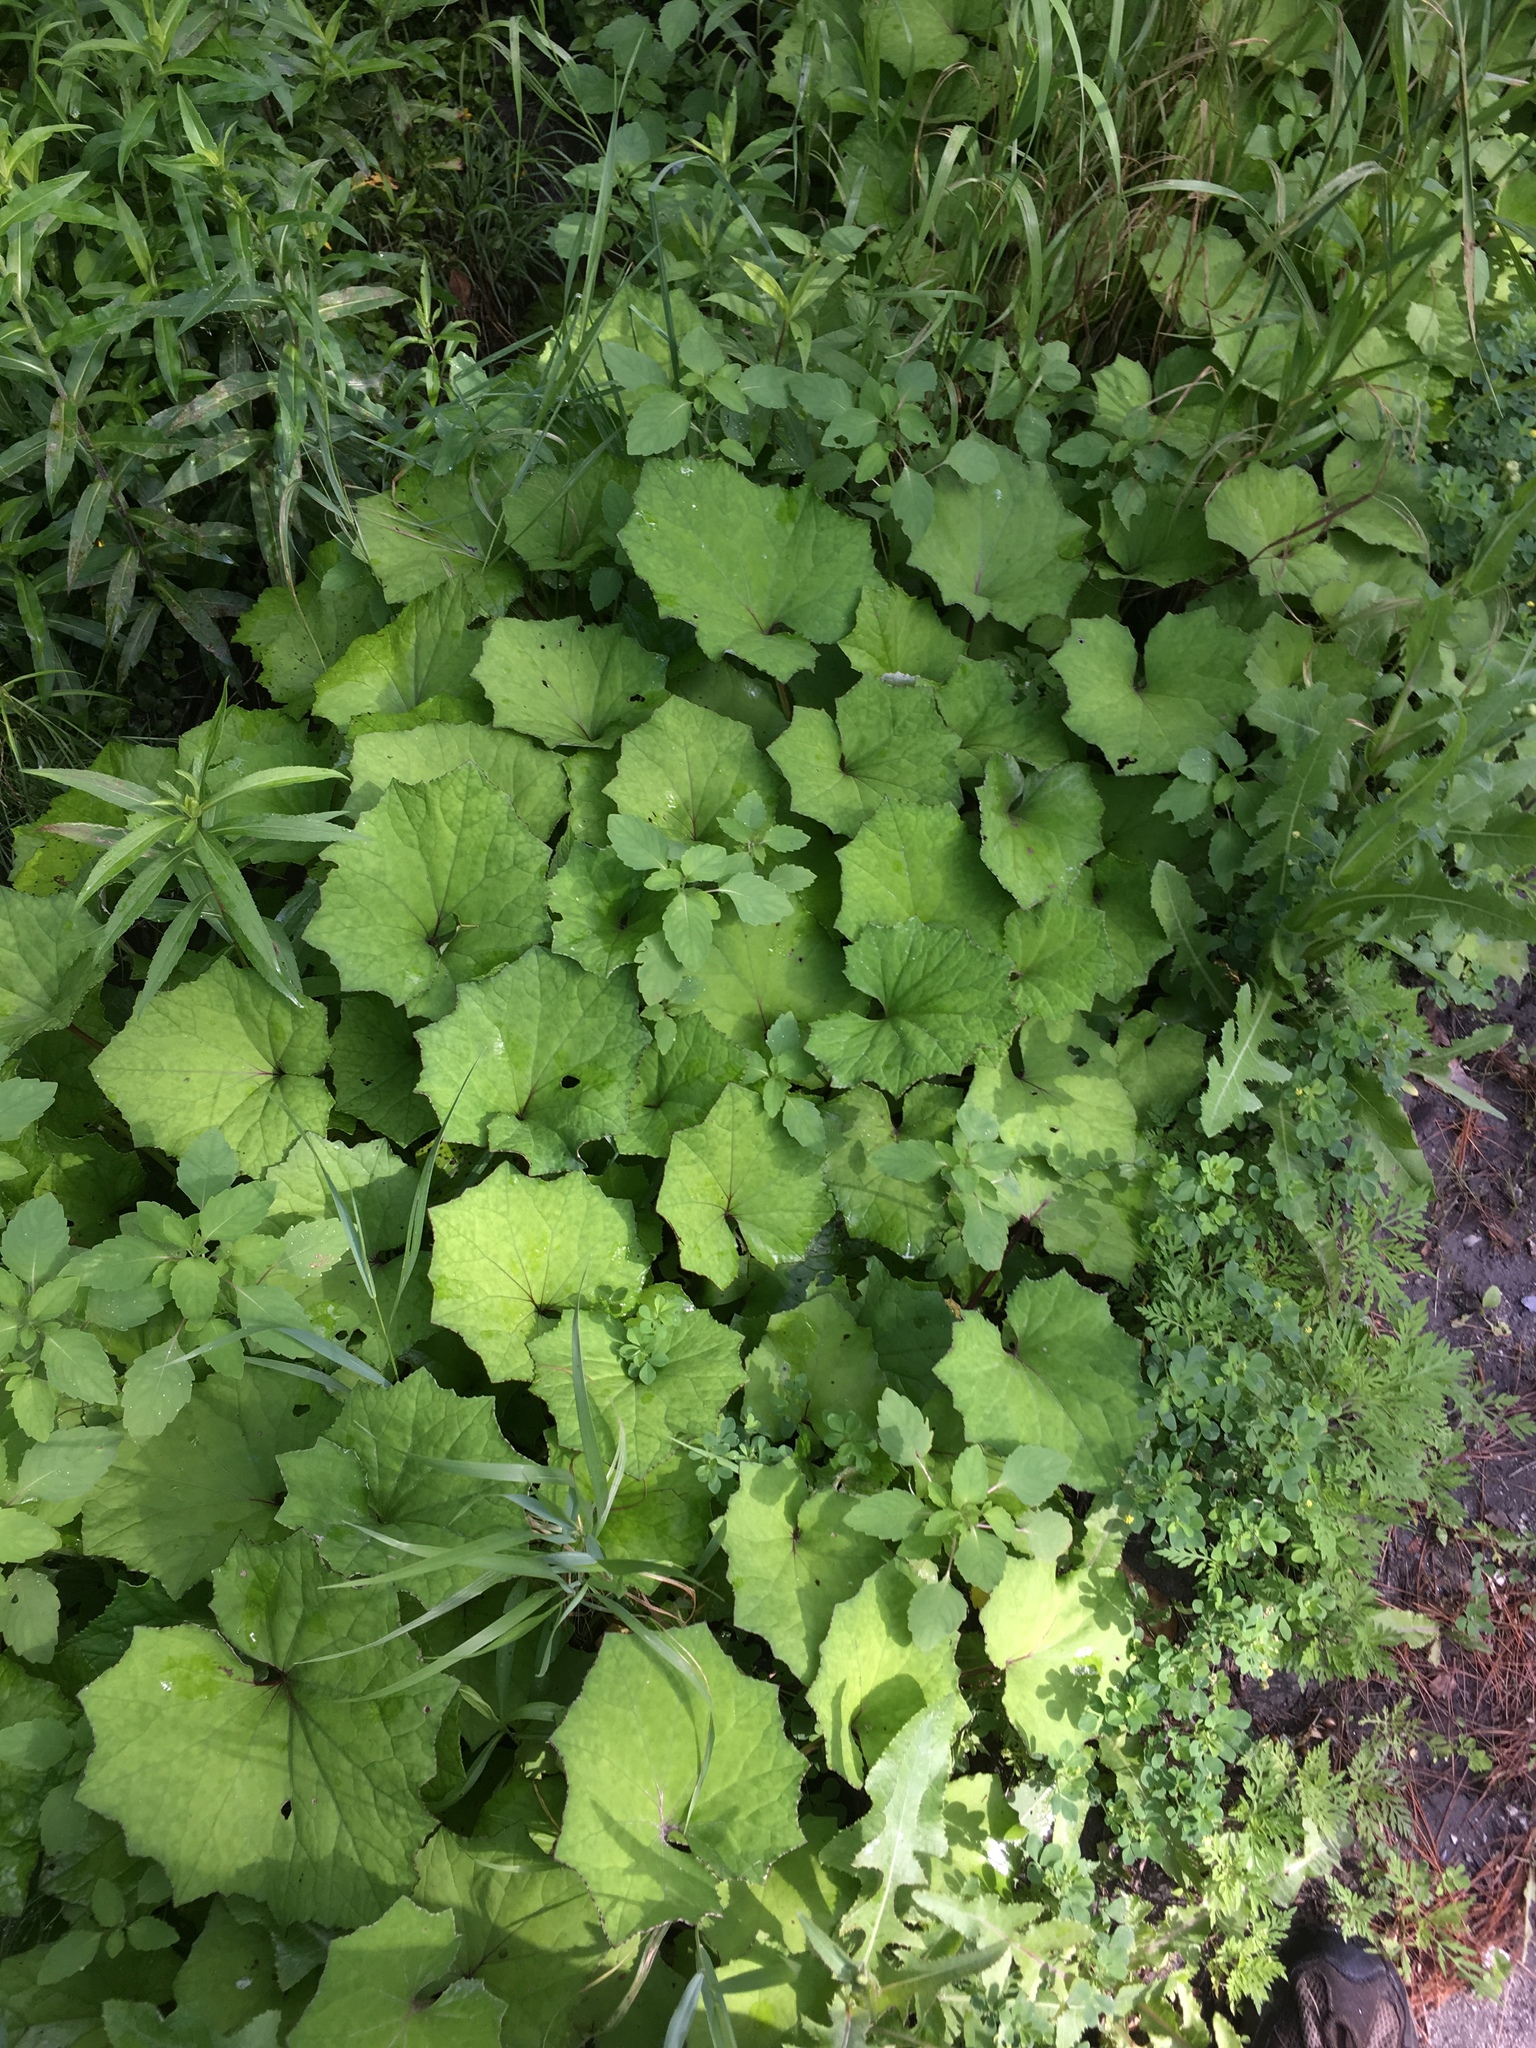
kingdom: Plantae
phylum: Tracheophyta
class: Magnoliopsida
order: Asterales
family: Asteraceae
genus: Tussilago
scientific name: Tussilago farfara
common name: Coltsfoot
